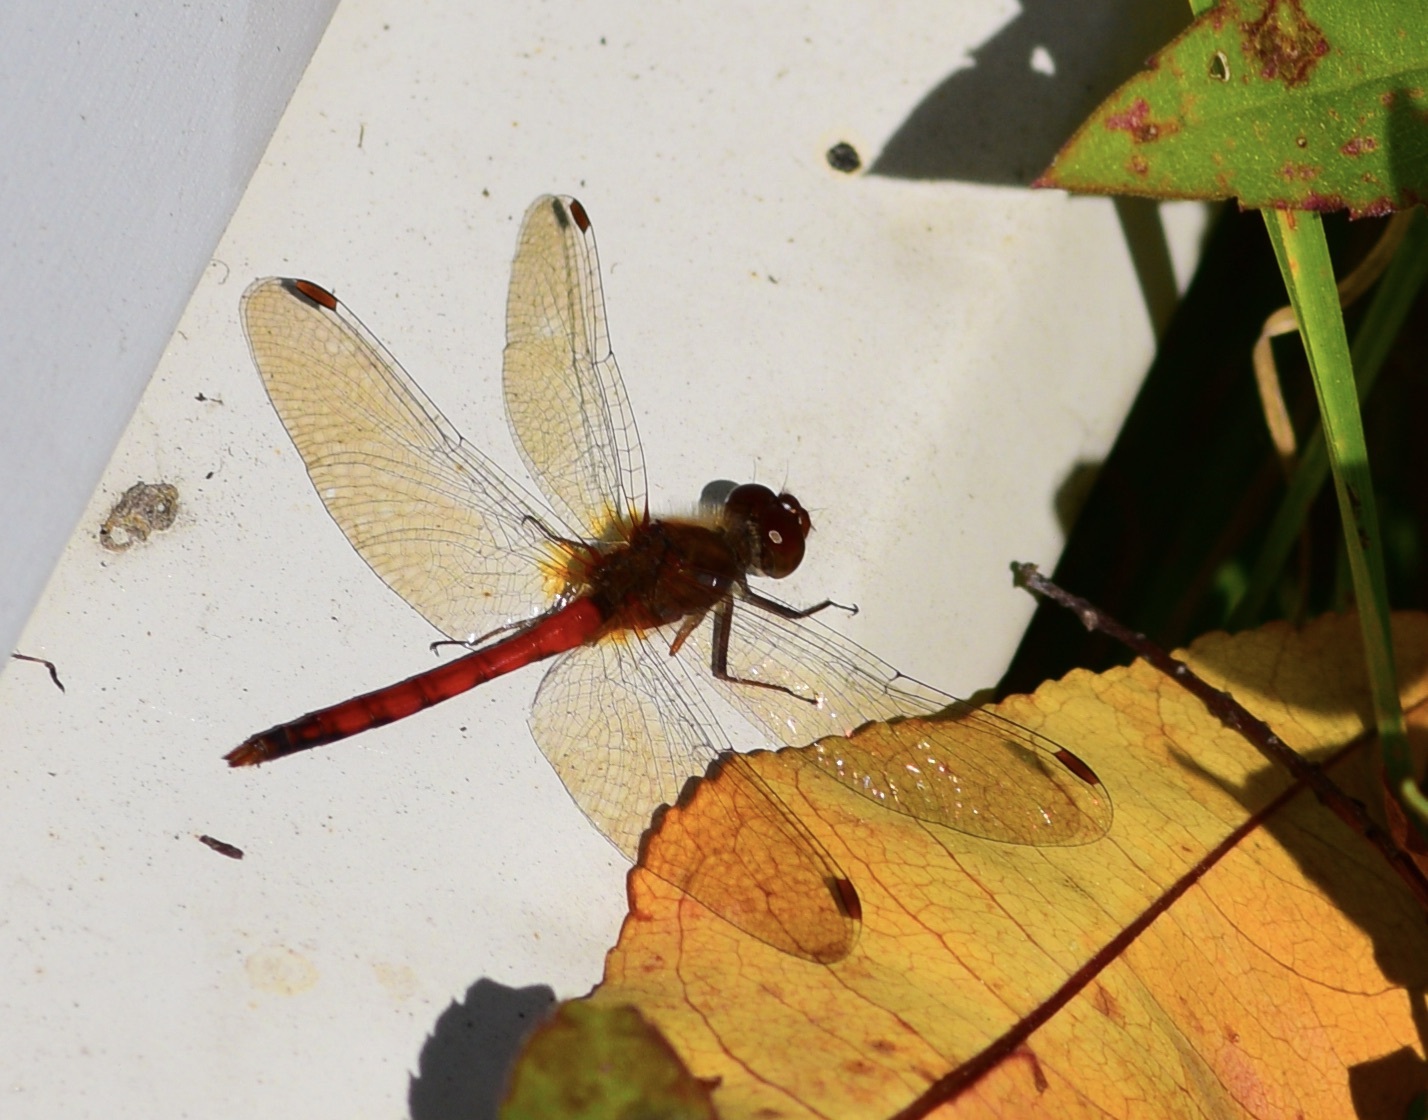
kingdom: Animalia
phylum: Arthropoda
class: Insecta
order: Odonata
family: Libellulidae
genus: Sympetrum
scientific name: Sympetrum vicinum
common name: Autumn meadowhawk
